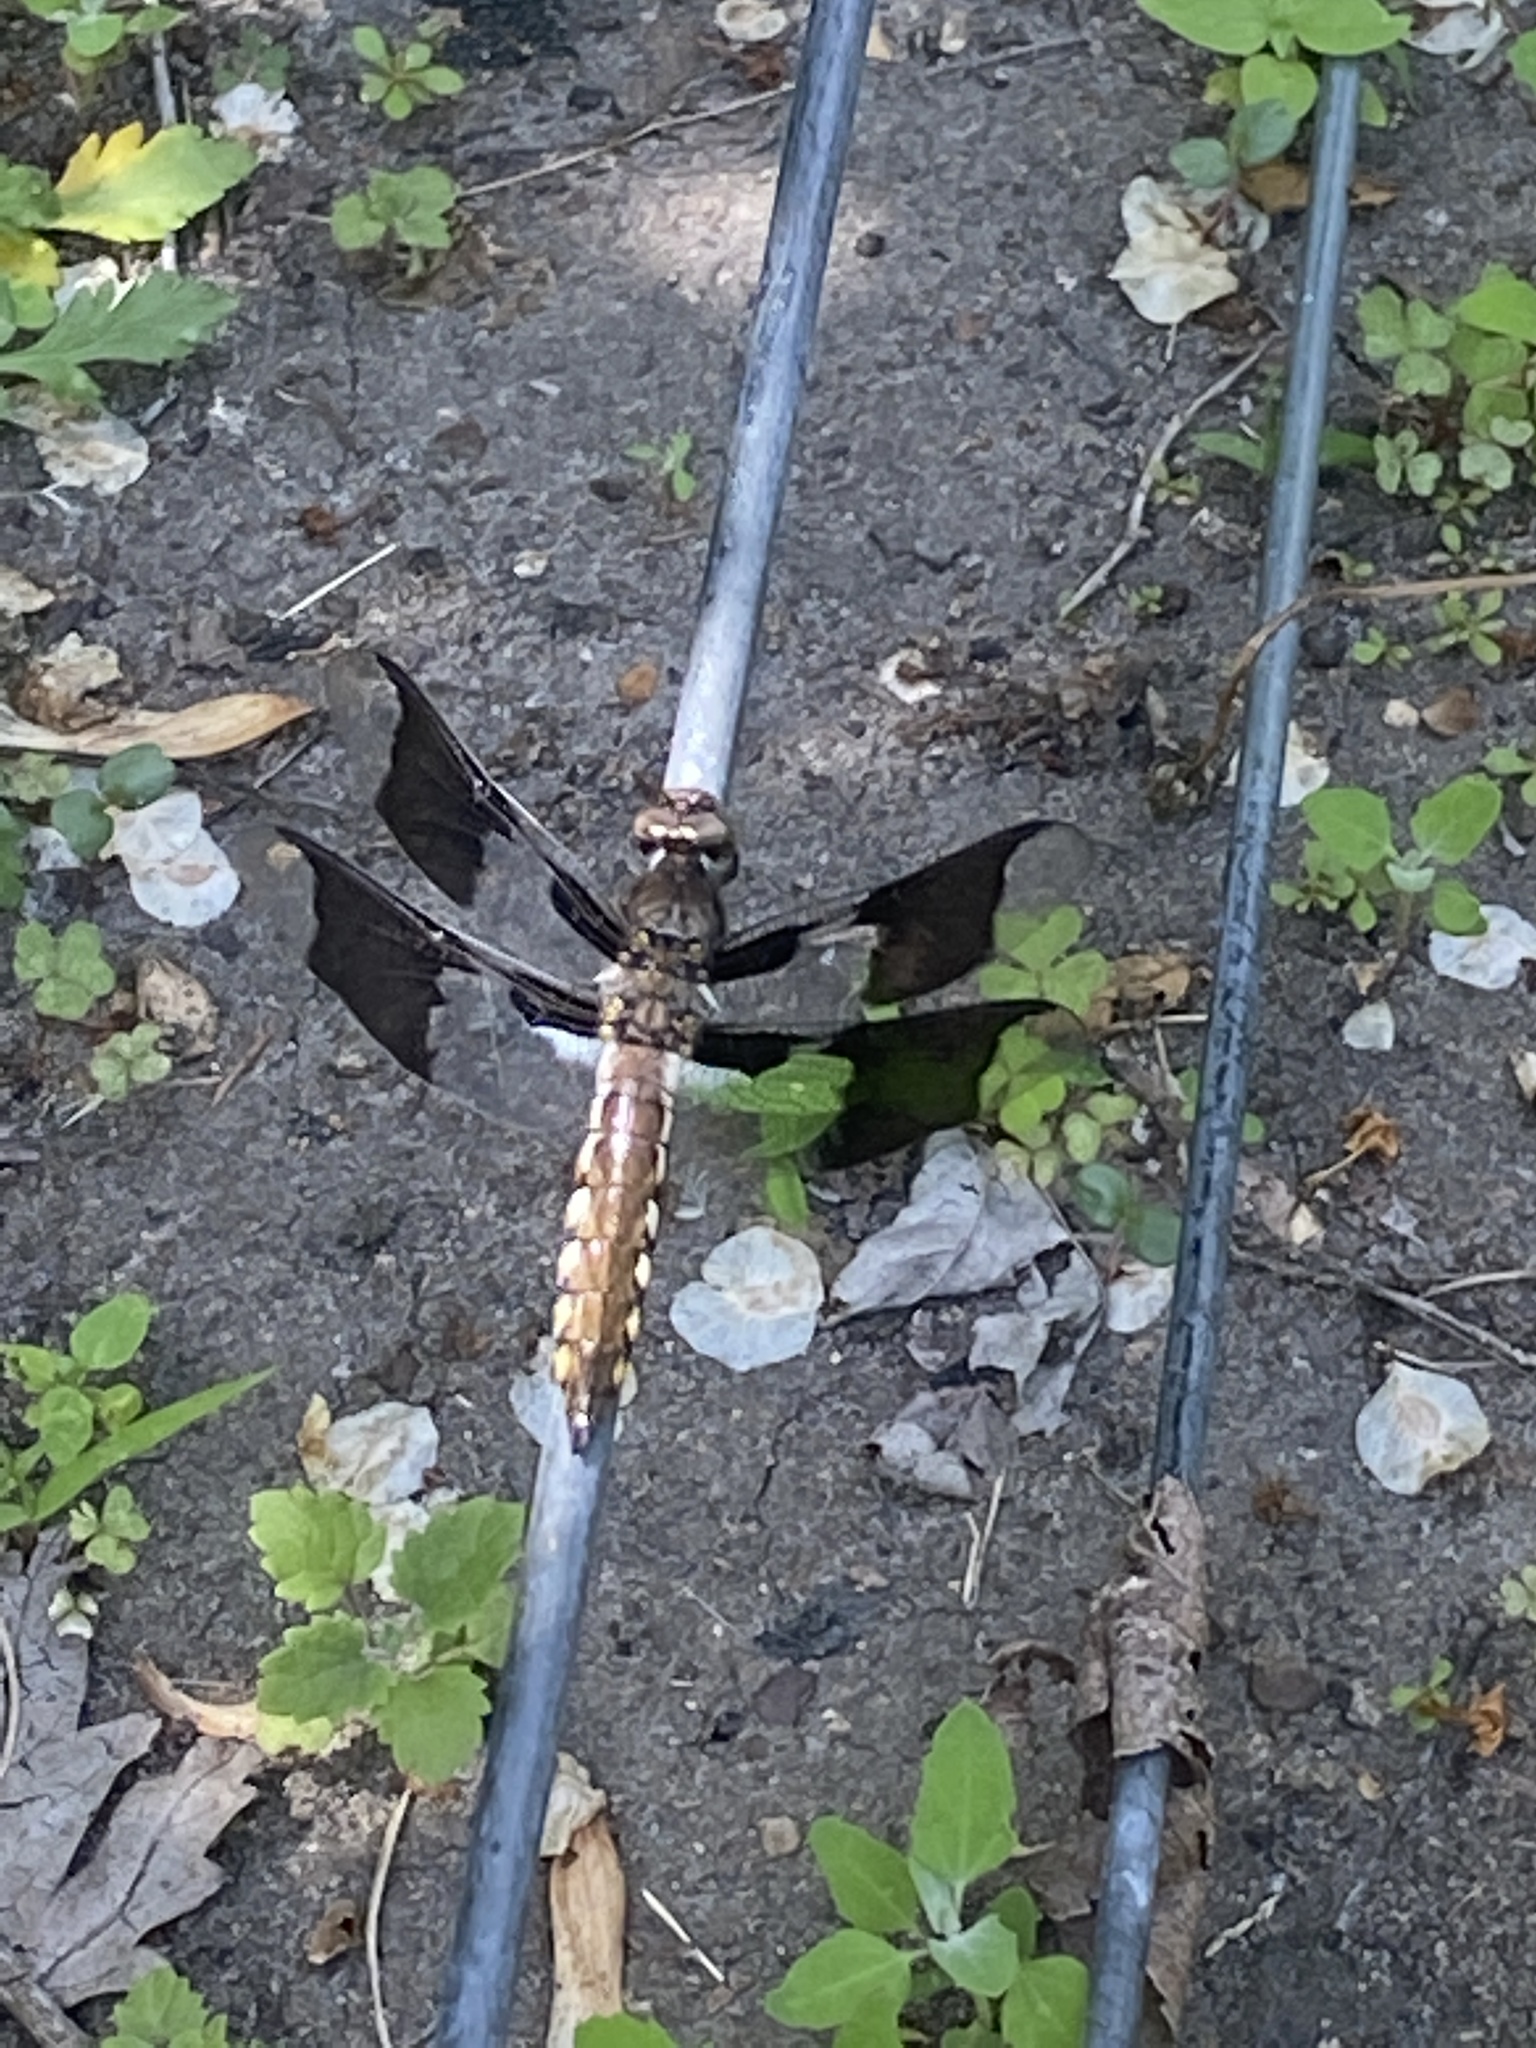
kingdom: Animalia
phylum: Arthropoda
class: Insecta
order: Odonata
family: Libellulidae
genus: Plathemis
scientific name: Plathemis lydia
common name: Common whitetail
